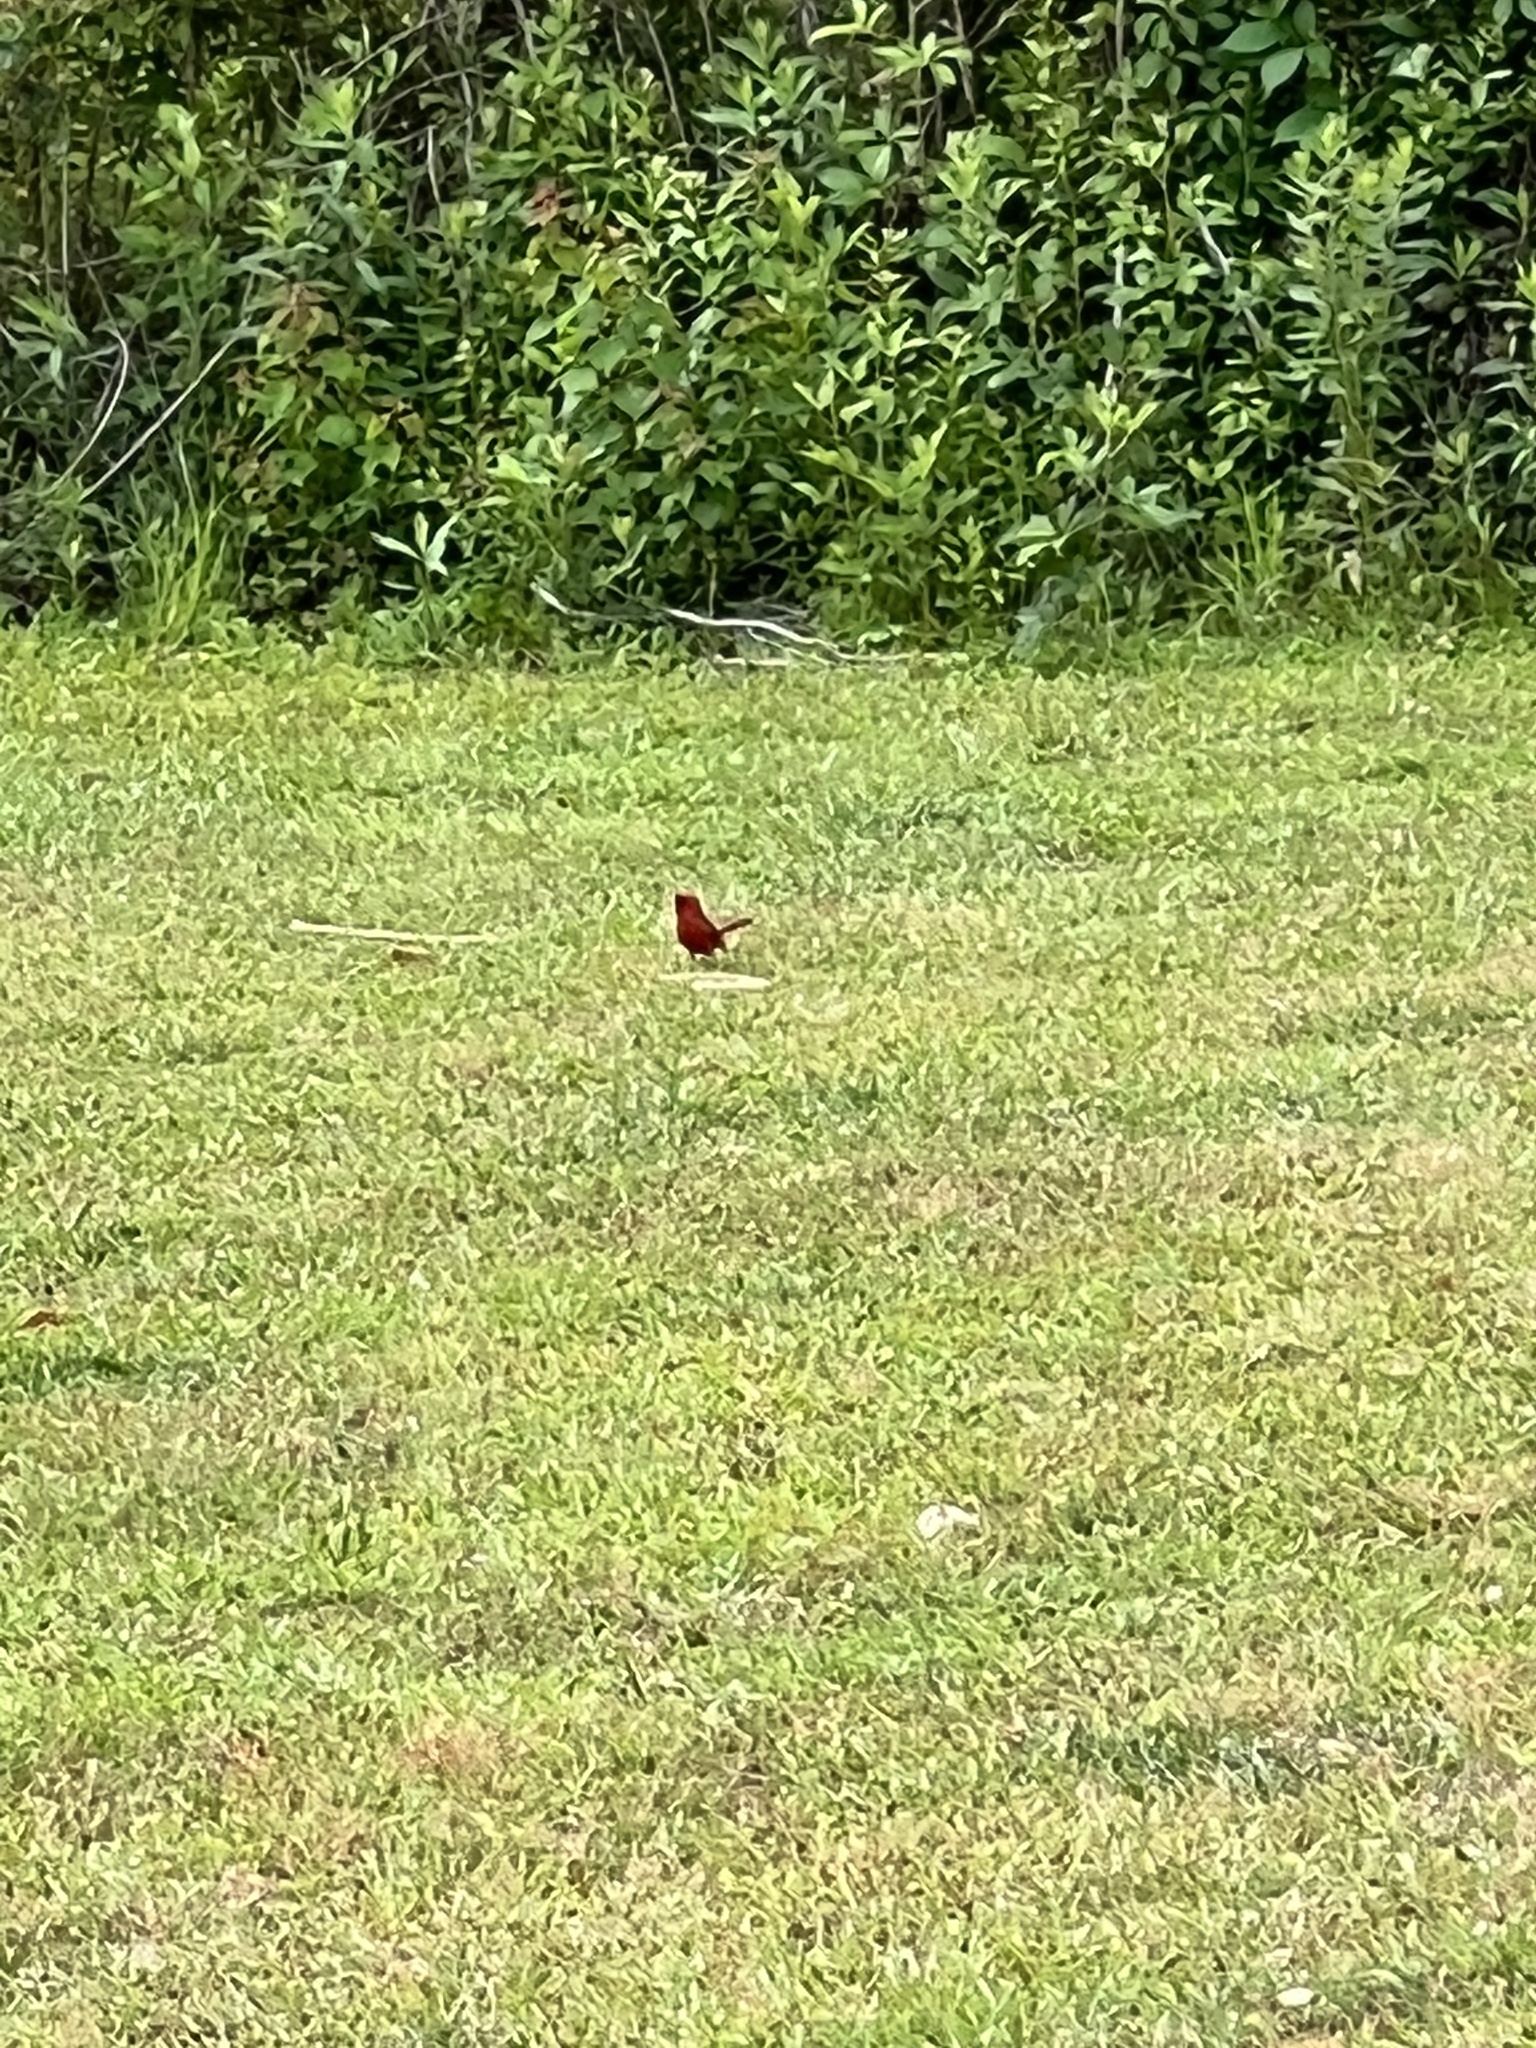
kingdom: Animalia
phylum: Chordata
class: Aves
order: Passeriformes
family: Cardinalidae
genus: Cardinalis
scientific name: Cardinalis cardinalis
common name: Northern cardinal
